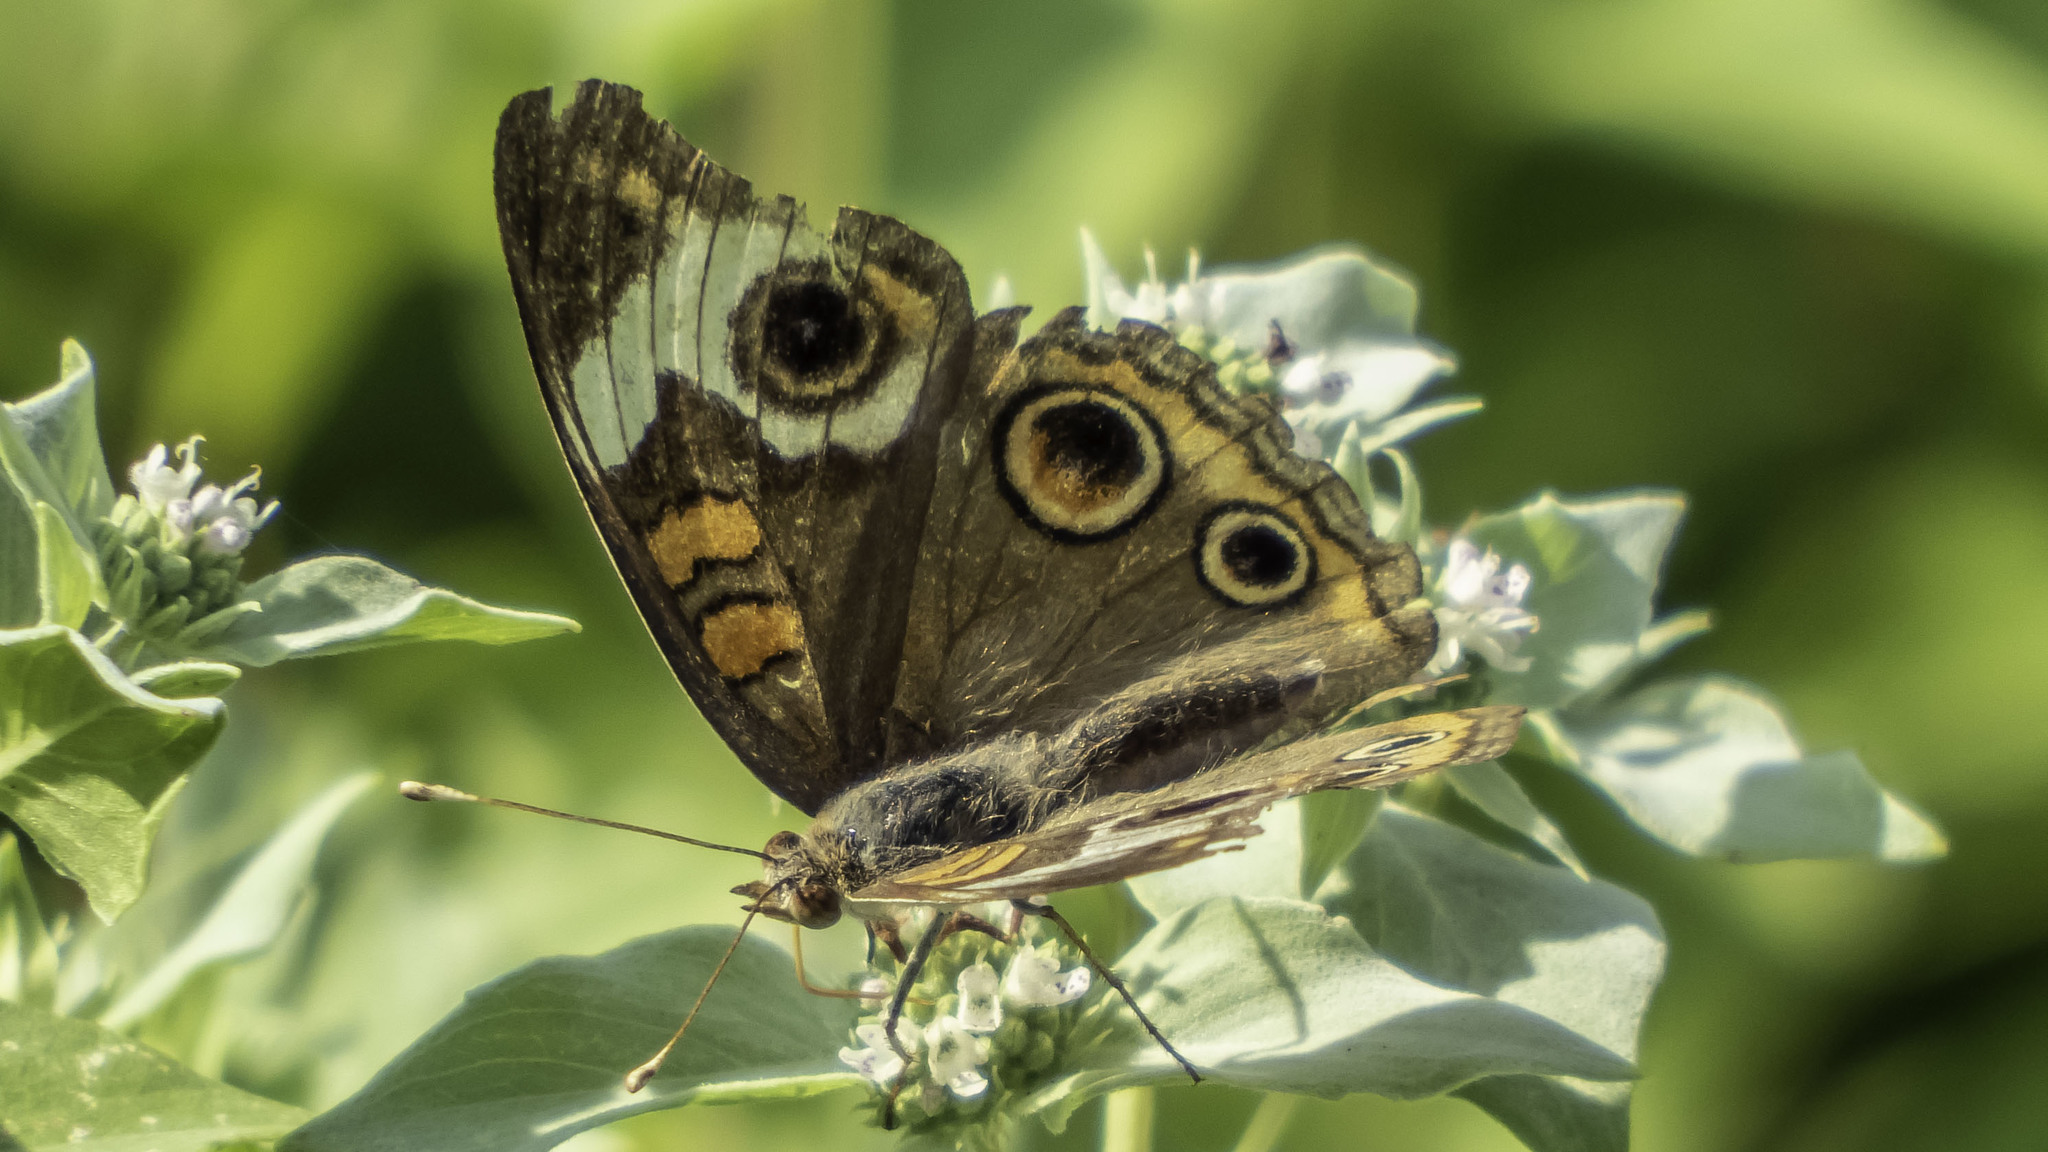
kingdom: Animalia
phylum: Arthropoda
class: Insecta
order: Lepidoptera
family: Nymphalidae
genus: Junonia
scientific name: Junonia coenia
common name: Common buckeye
